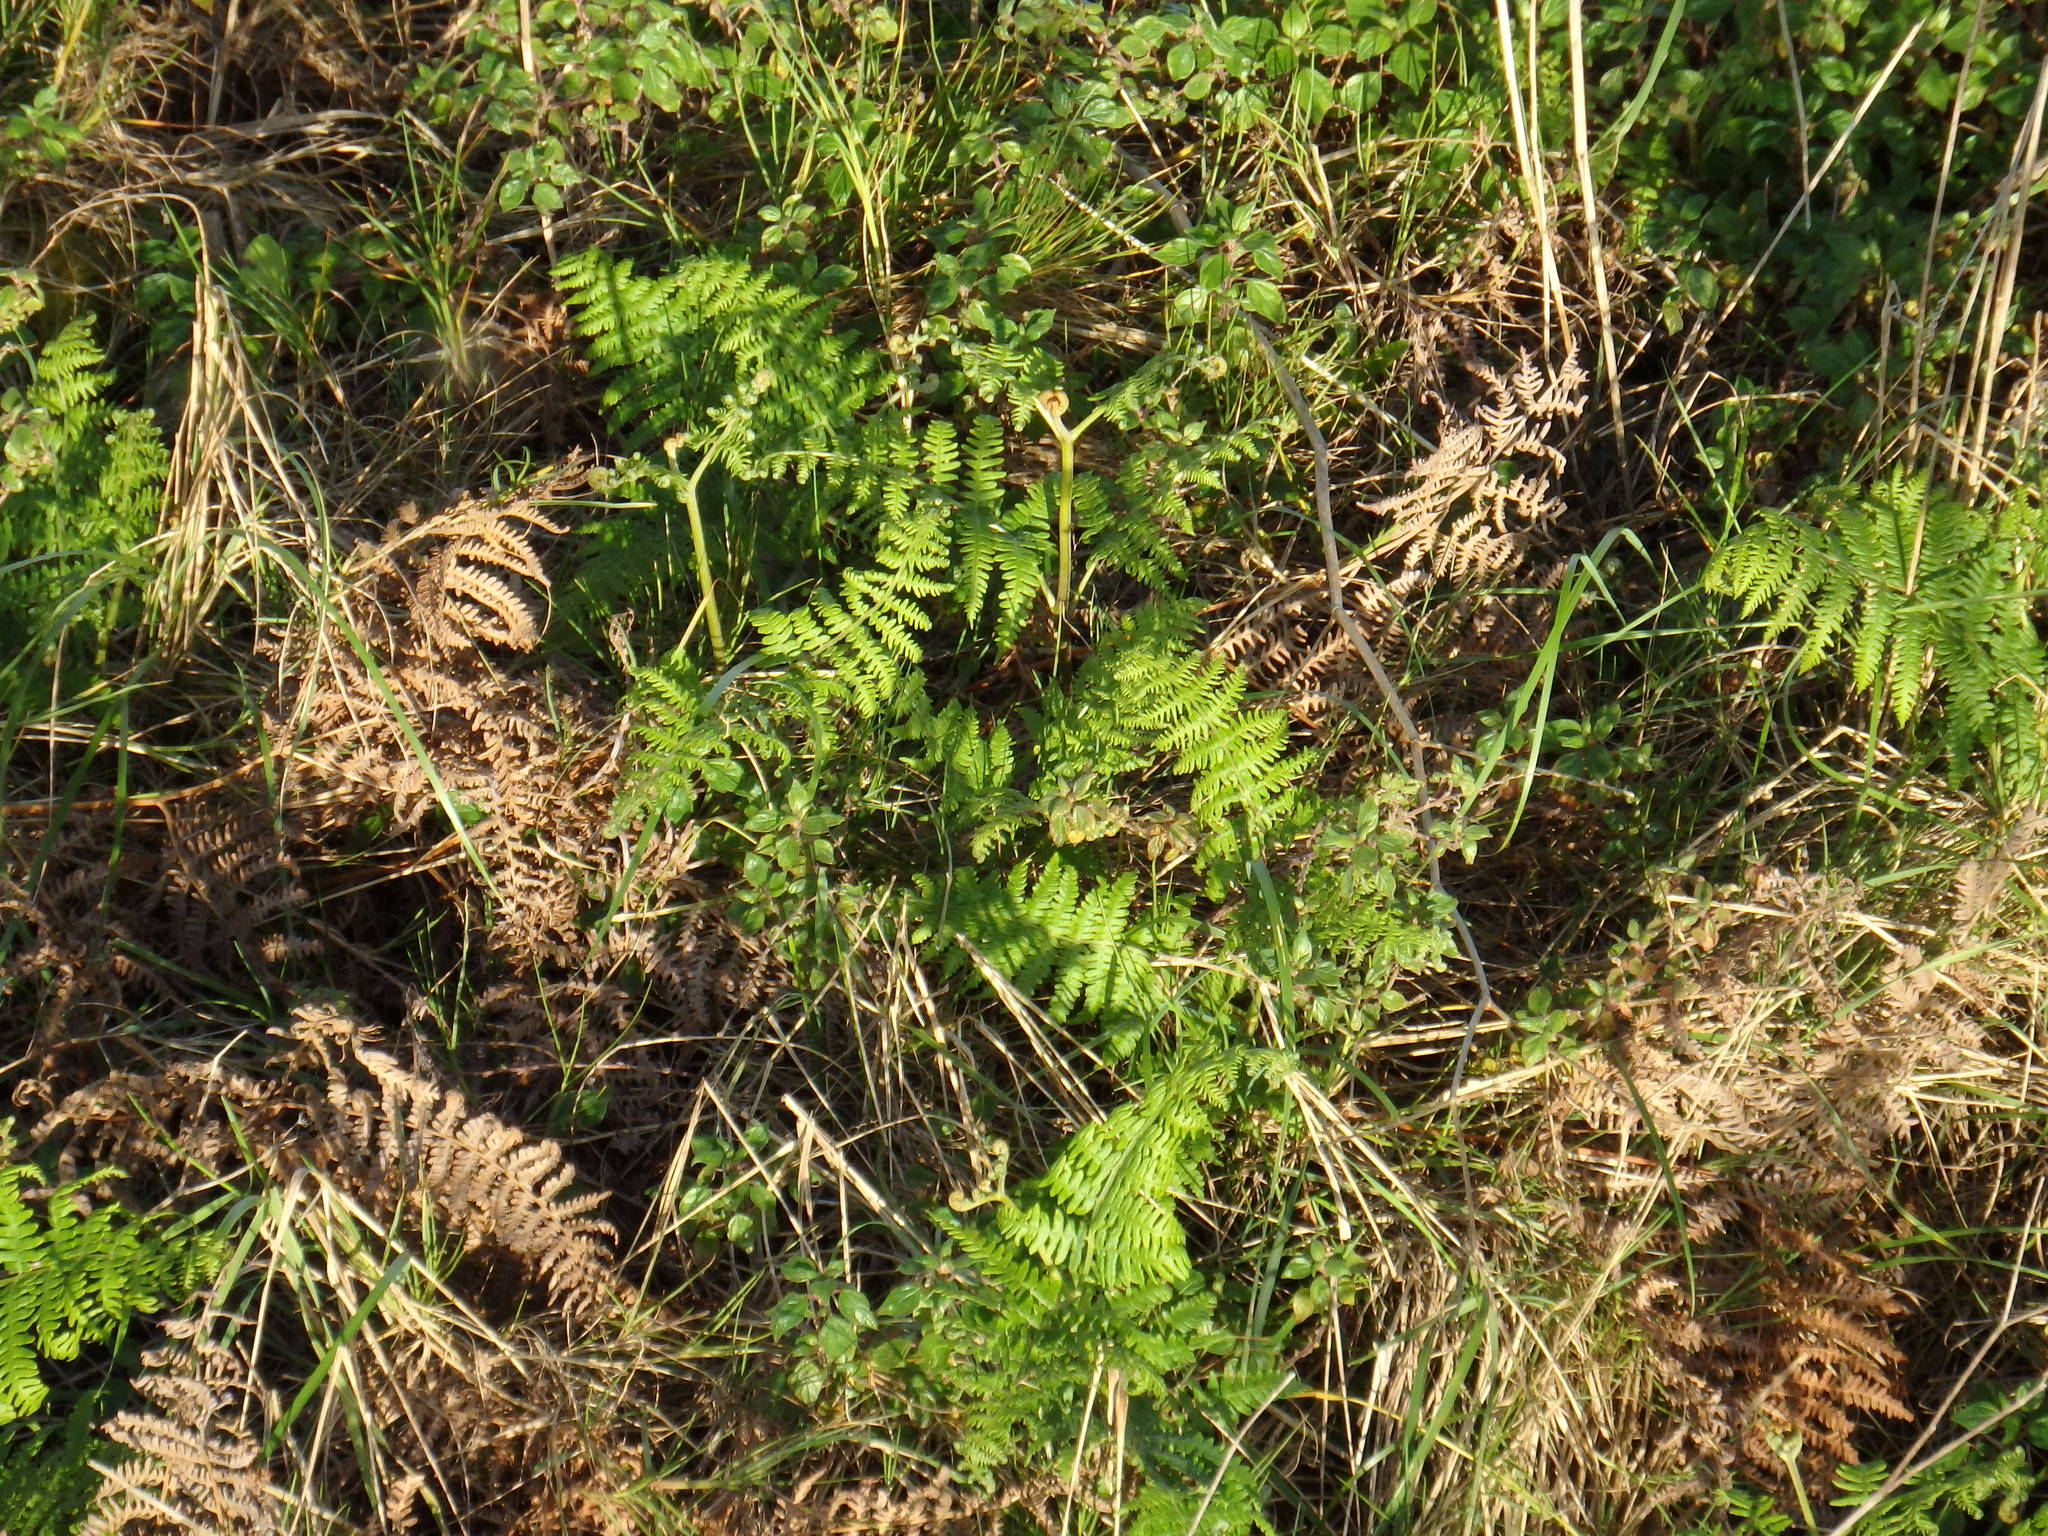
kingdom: Plantae
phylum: Tracheophyta
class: Polypodiopsida
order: Polypodiales
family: Dennstaedtiaceae
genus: Pteridium
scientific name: Pteridium aquilinum
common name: Bracken
